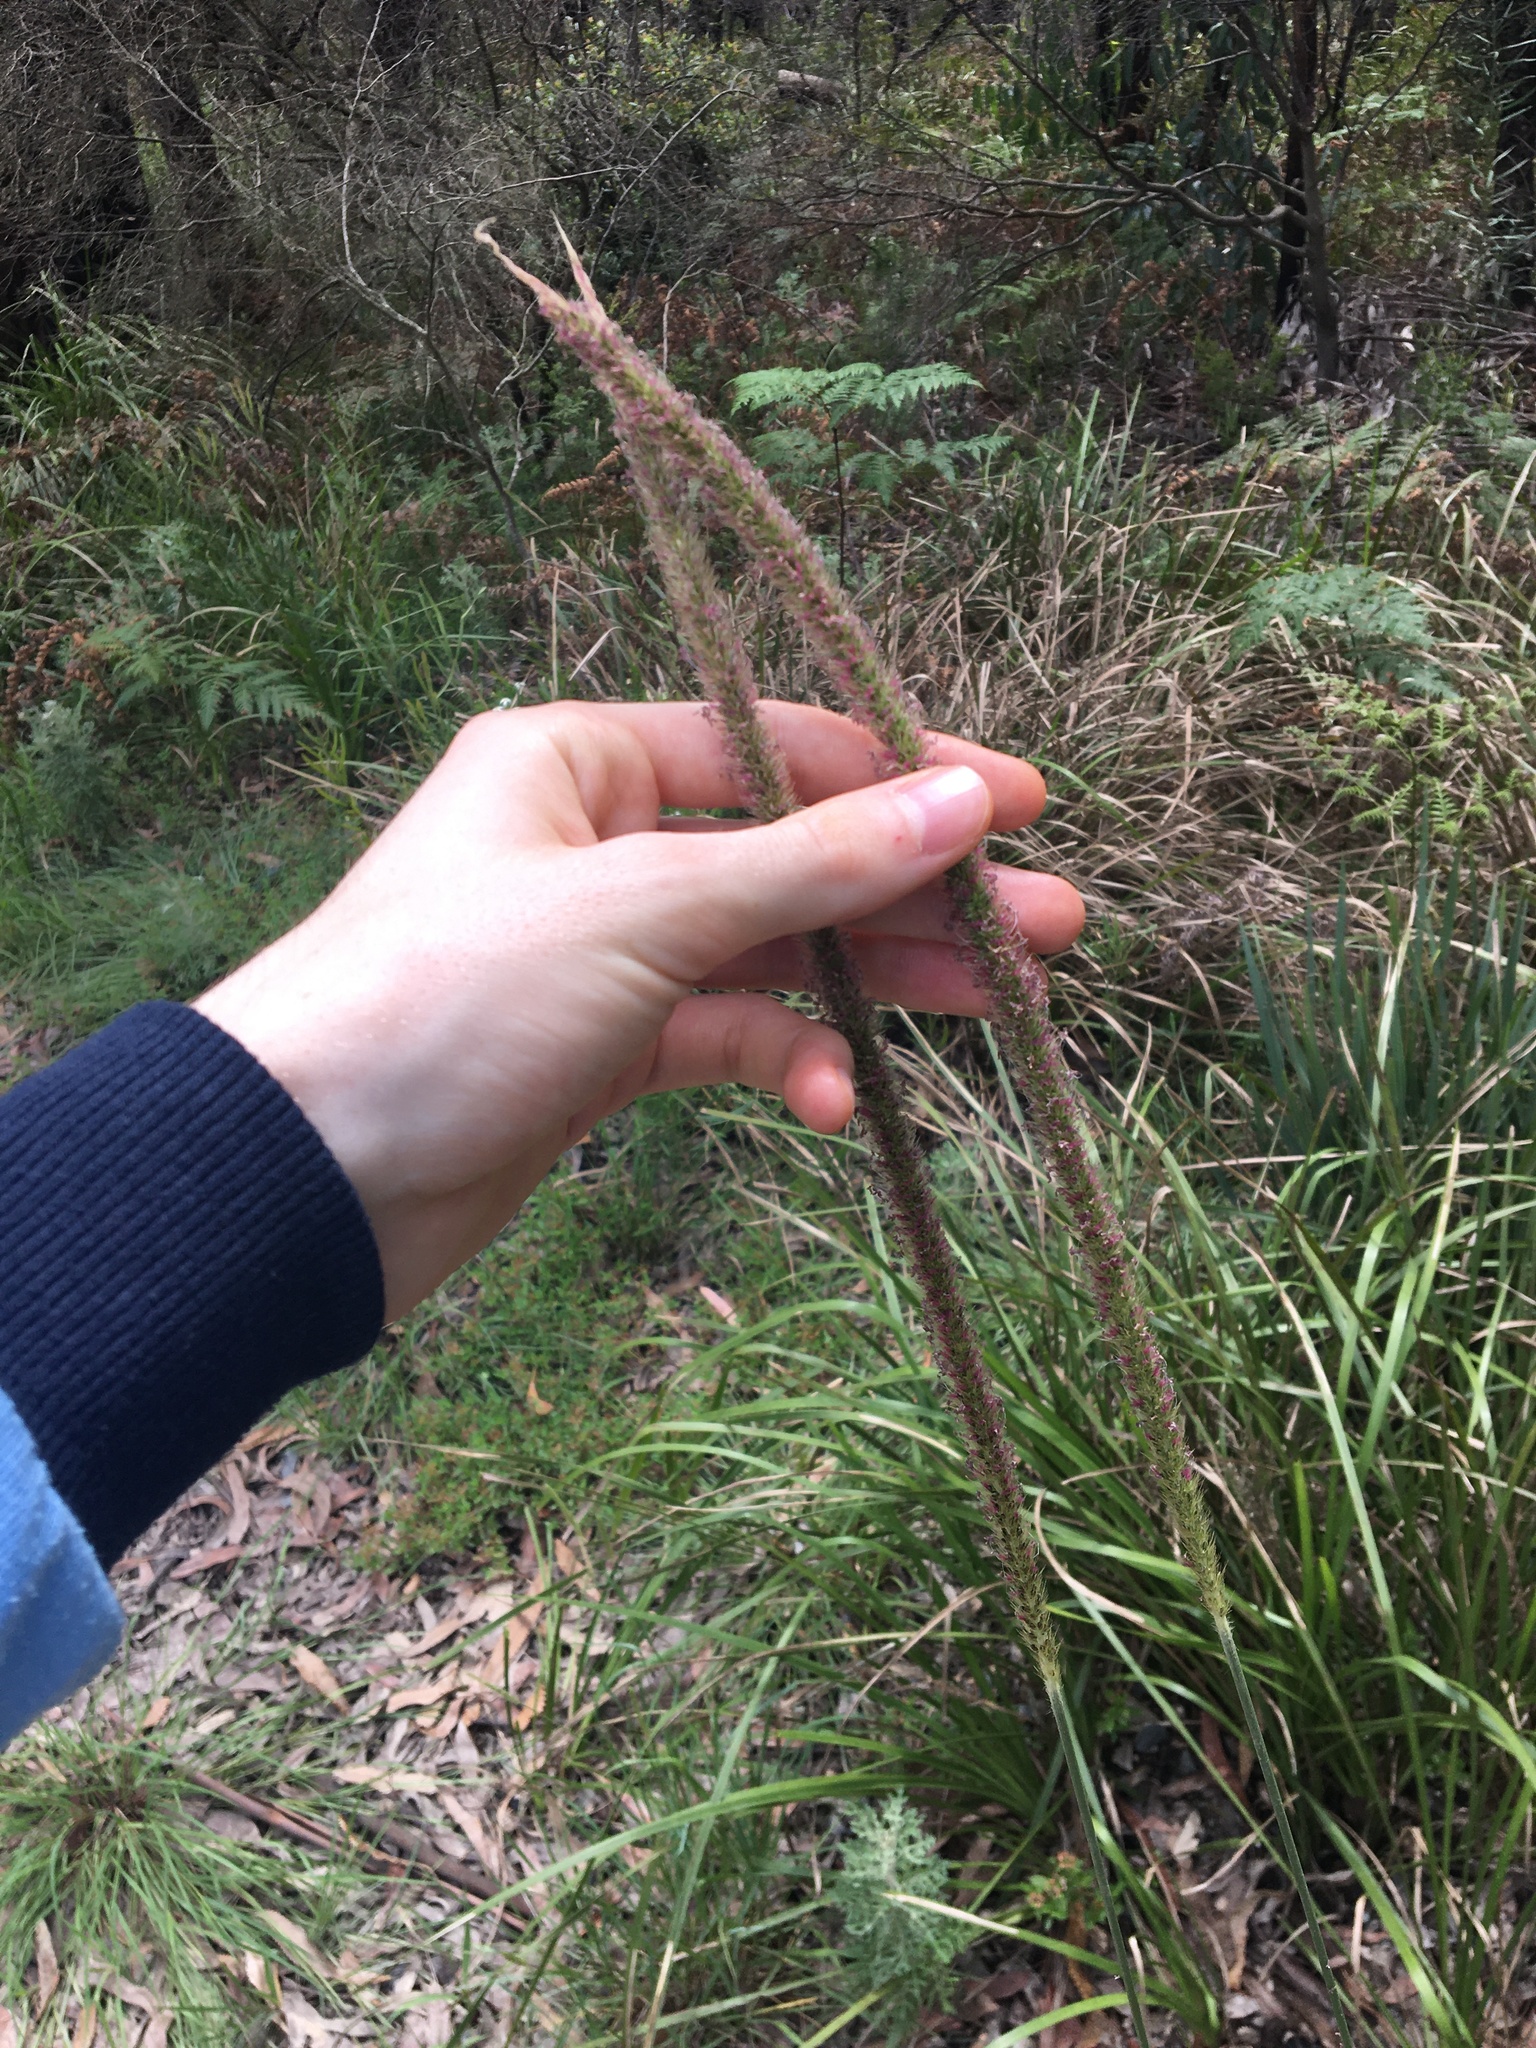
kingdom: Plantae
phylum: Tracheophyta
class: Liliopsida
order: Poales
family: Poaceae
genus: Setaria
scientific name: Setaria sphacelata
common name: African bristlegrass
